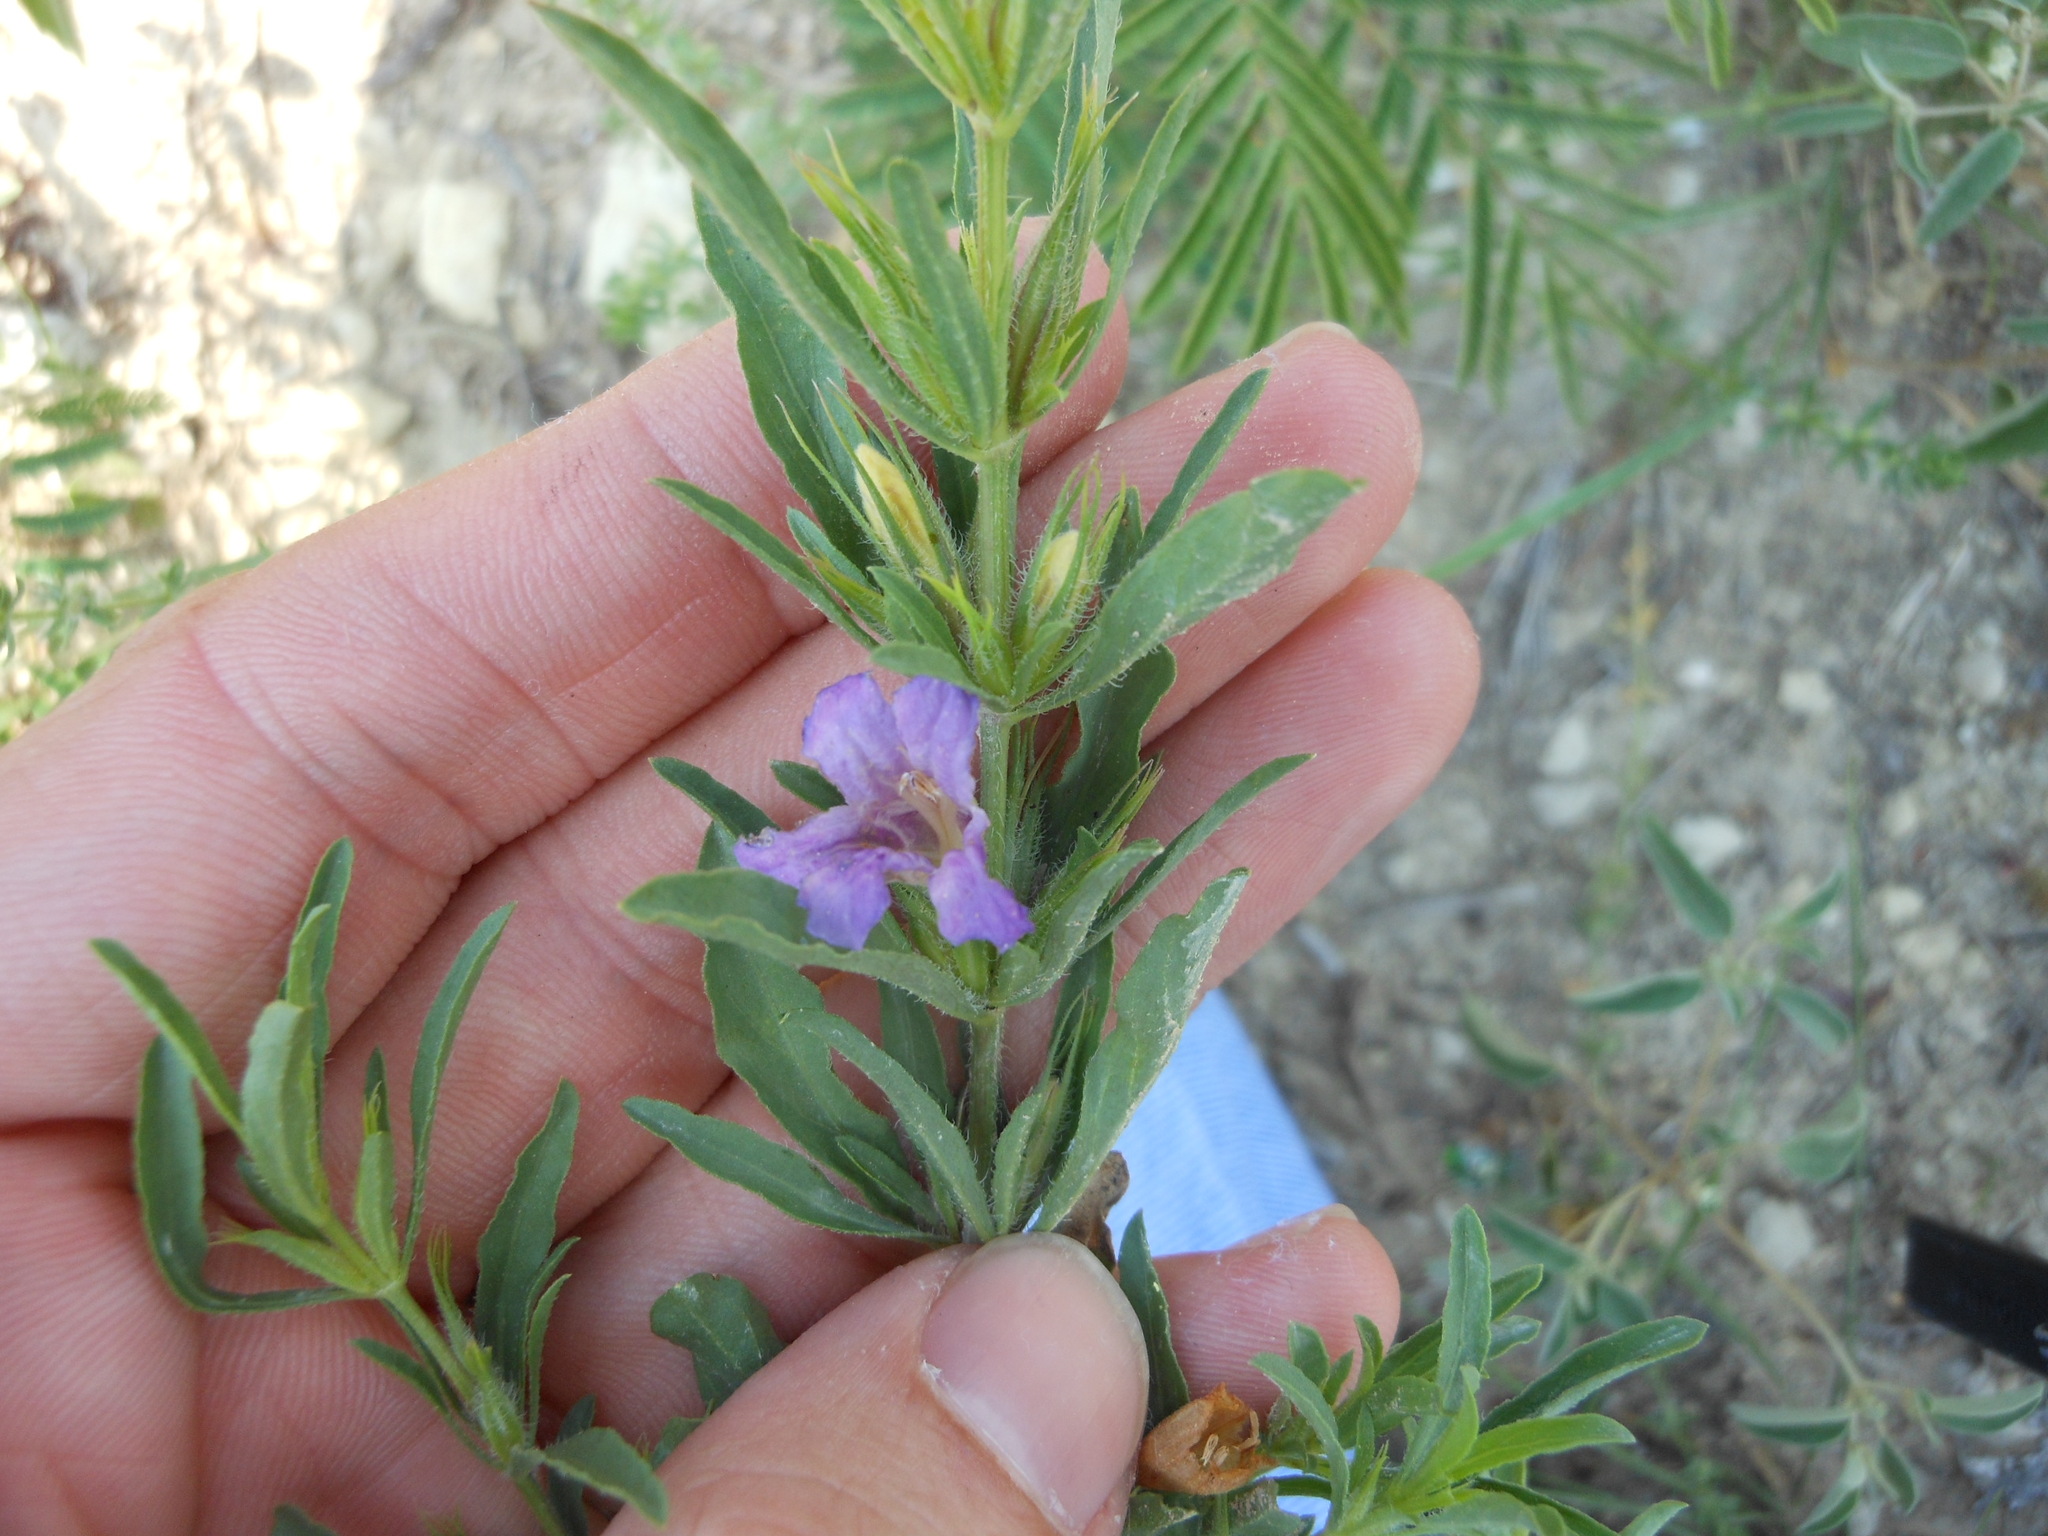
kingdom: Plantae
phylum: Tracheophyta
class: Magnoliopsida
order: Lamiales
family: Acanthaceae
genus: Dyschoriste
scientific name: Dyschoriste linearis
